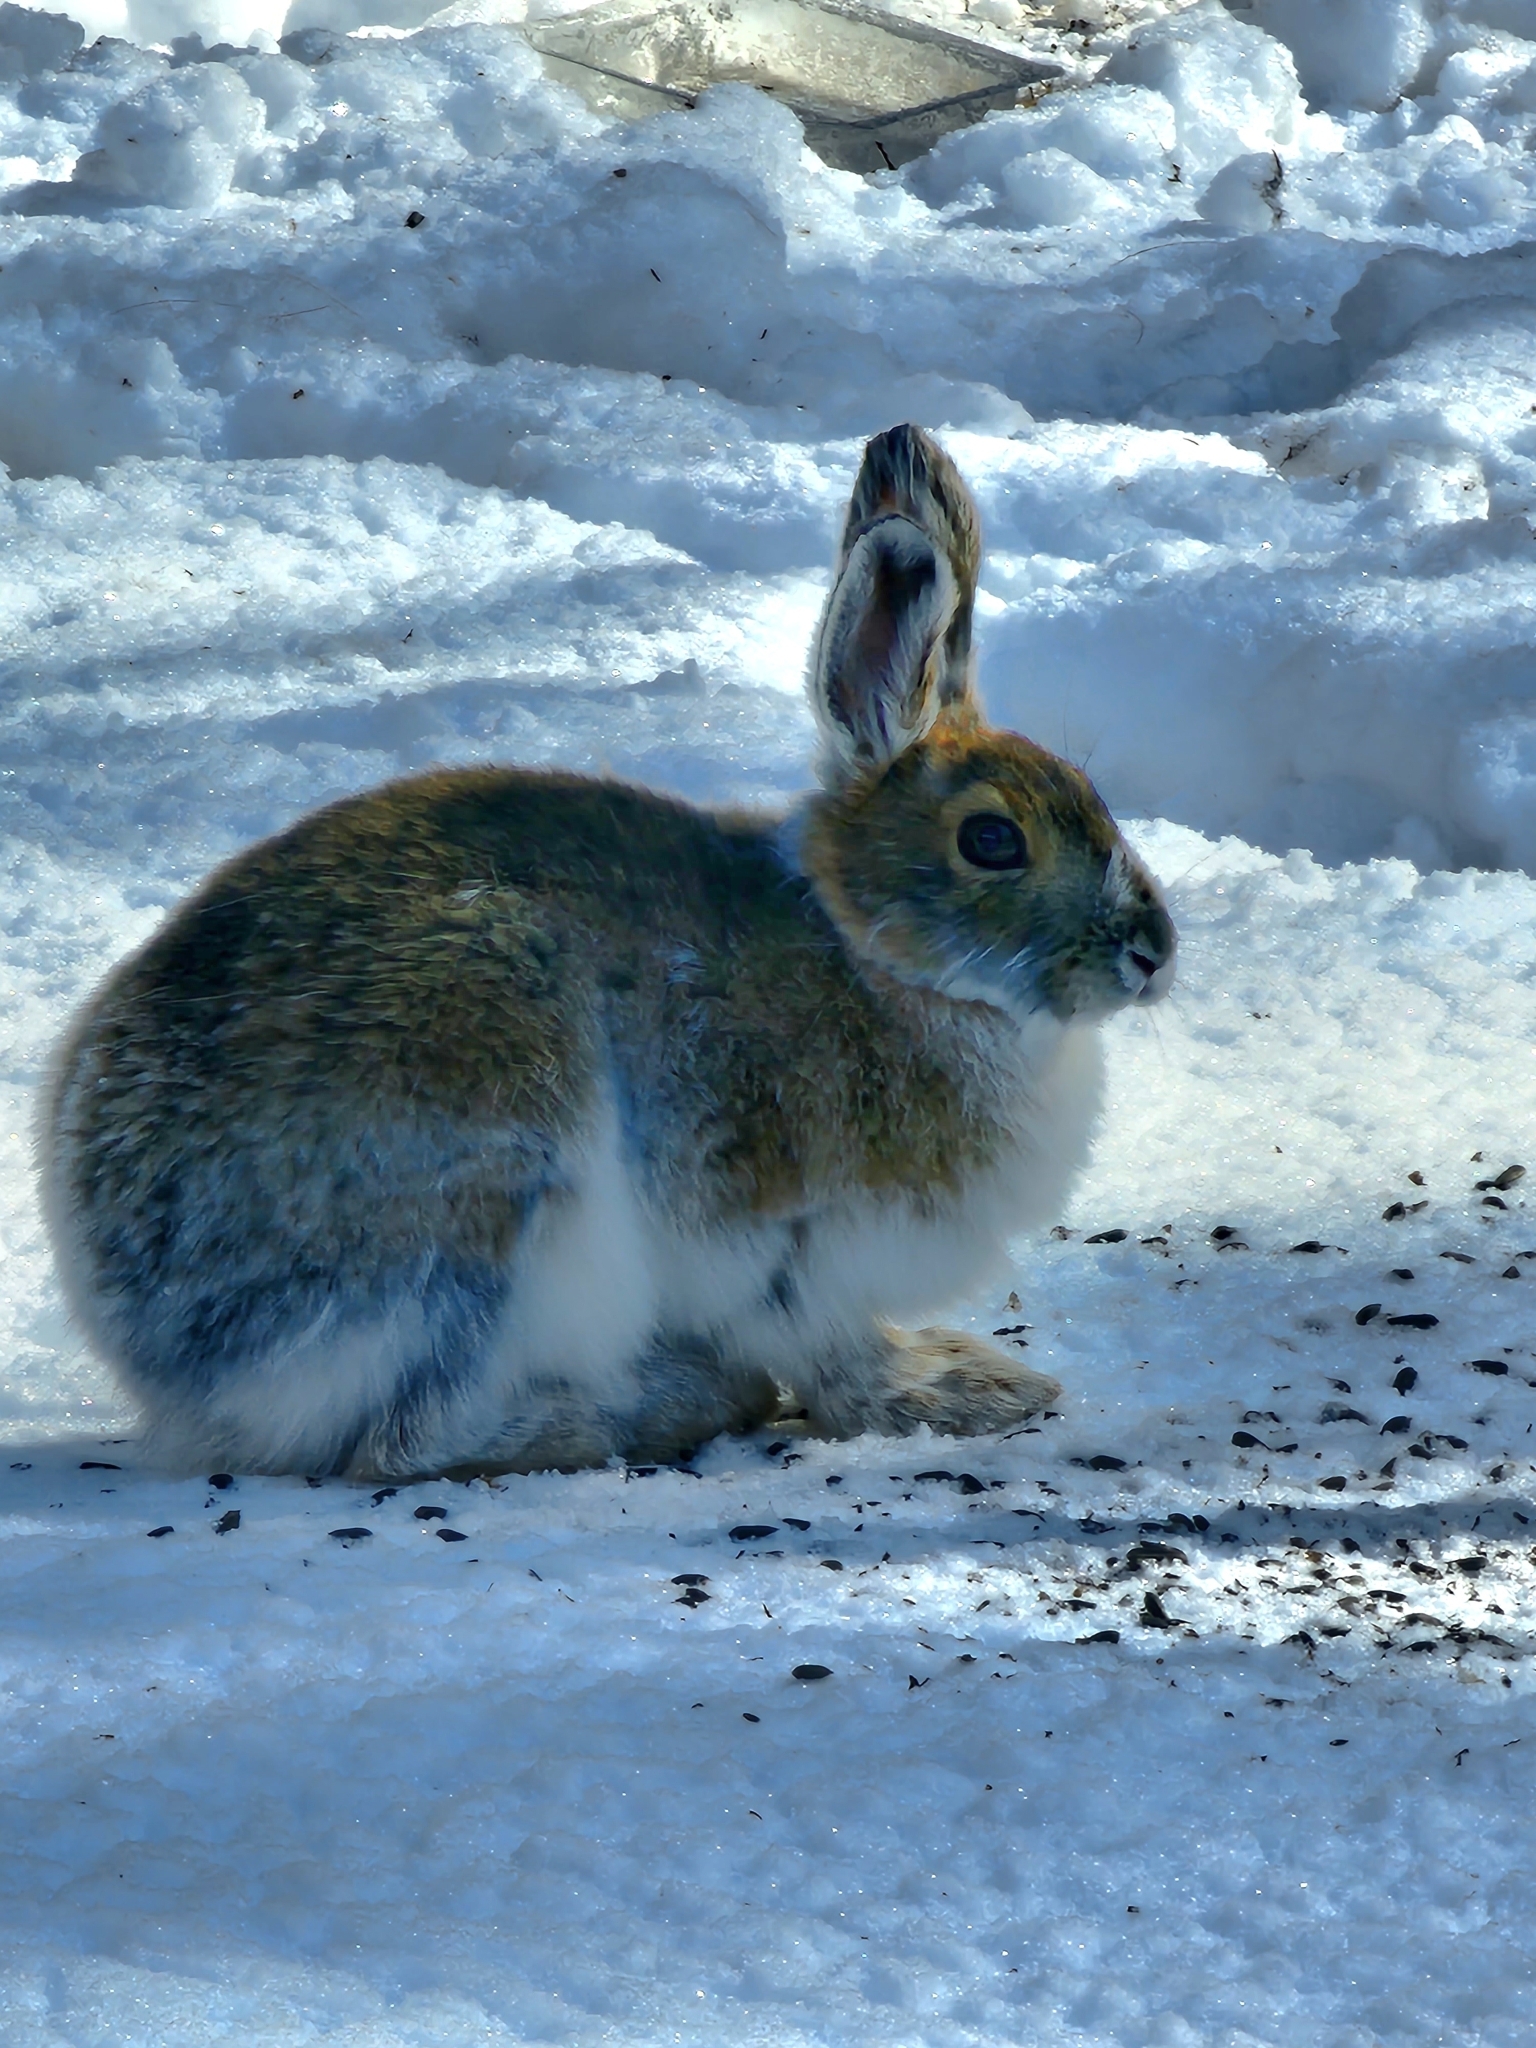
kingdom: Animalia
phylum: Chordata
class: Mammalia
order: Lagomorpha
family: Leporidae
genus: Lepus
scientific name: Lepus americanus
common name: Snowshoe hare
